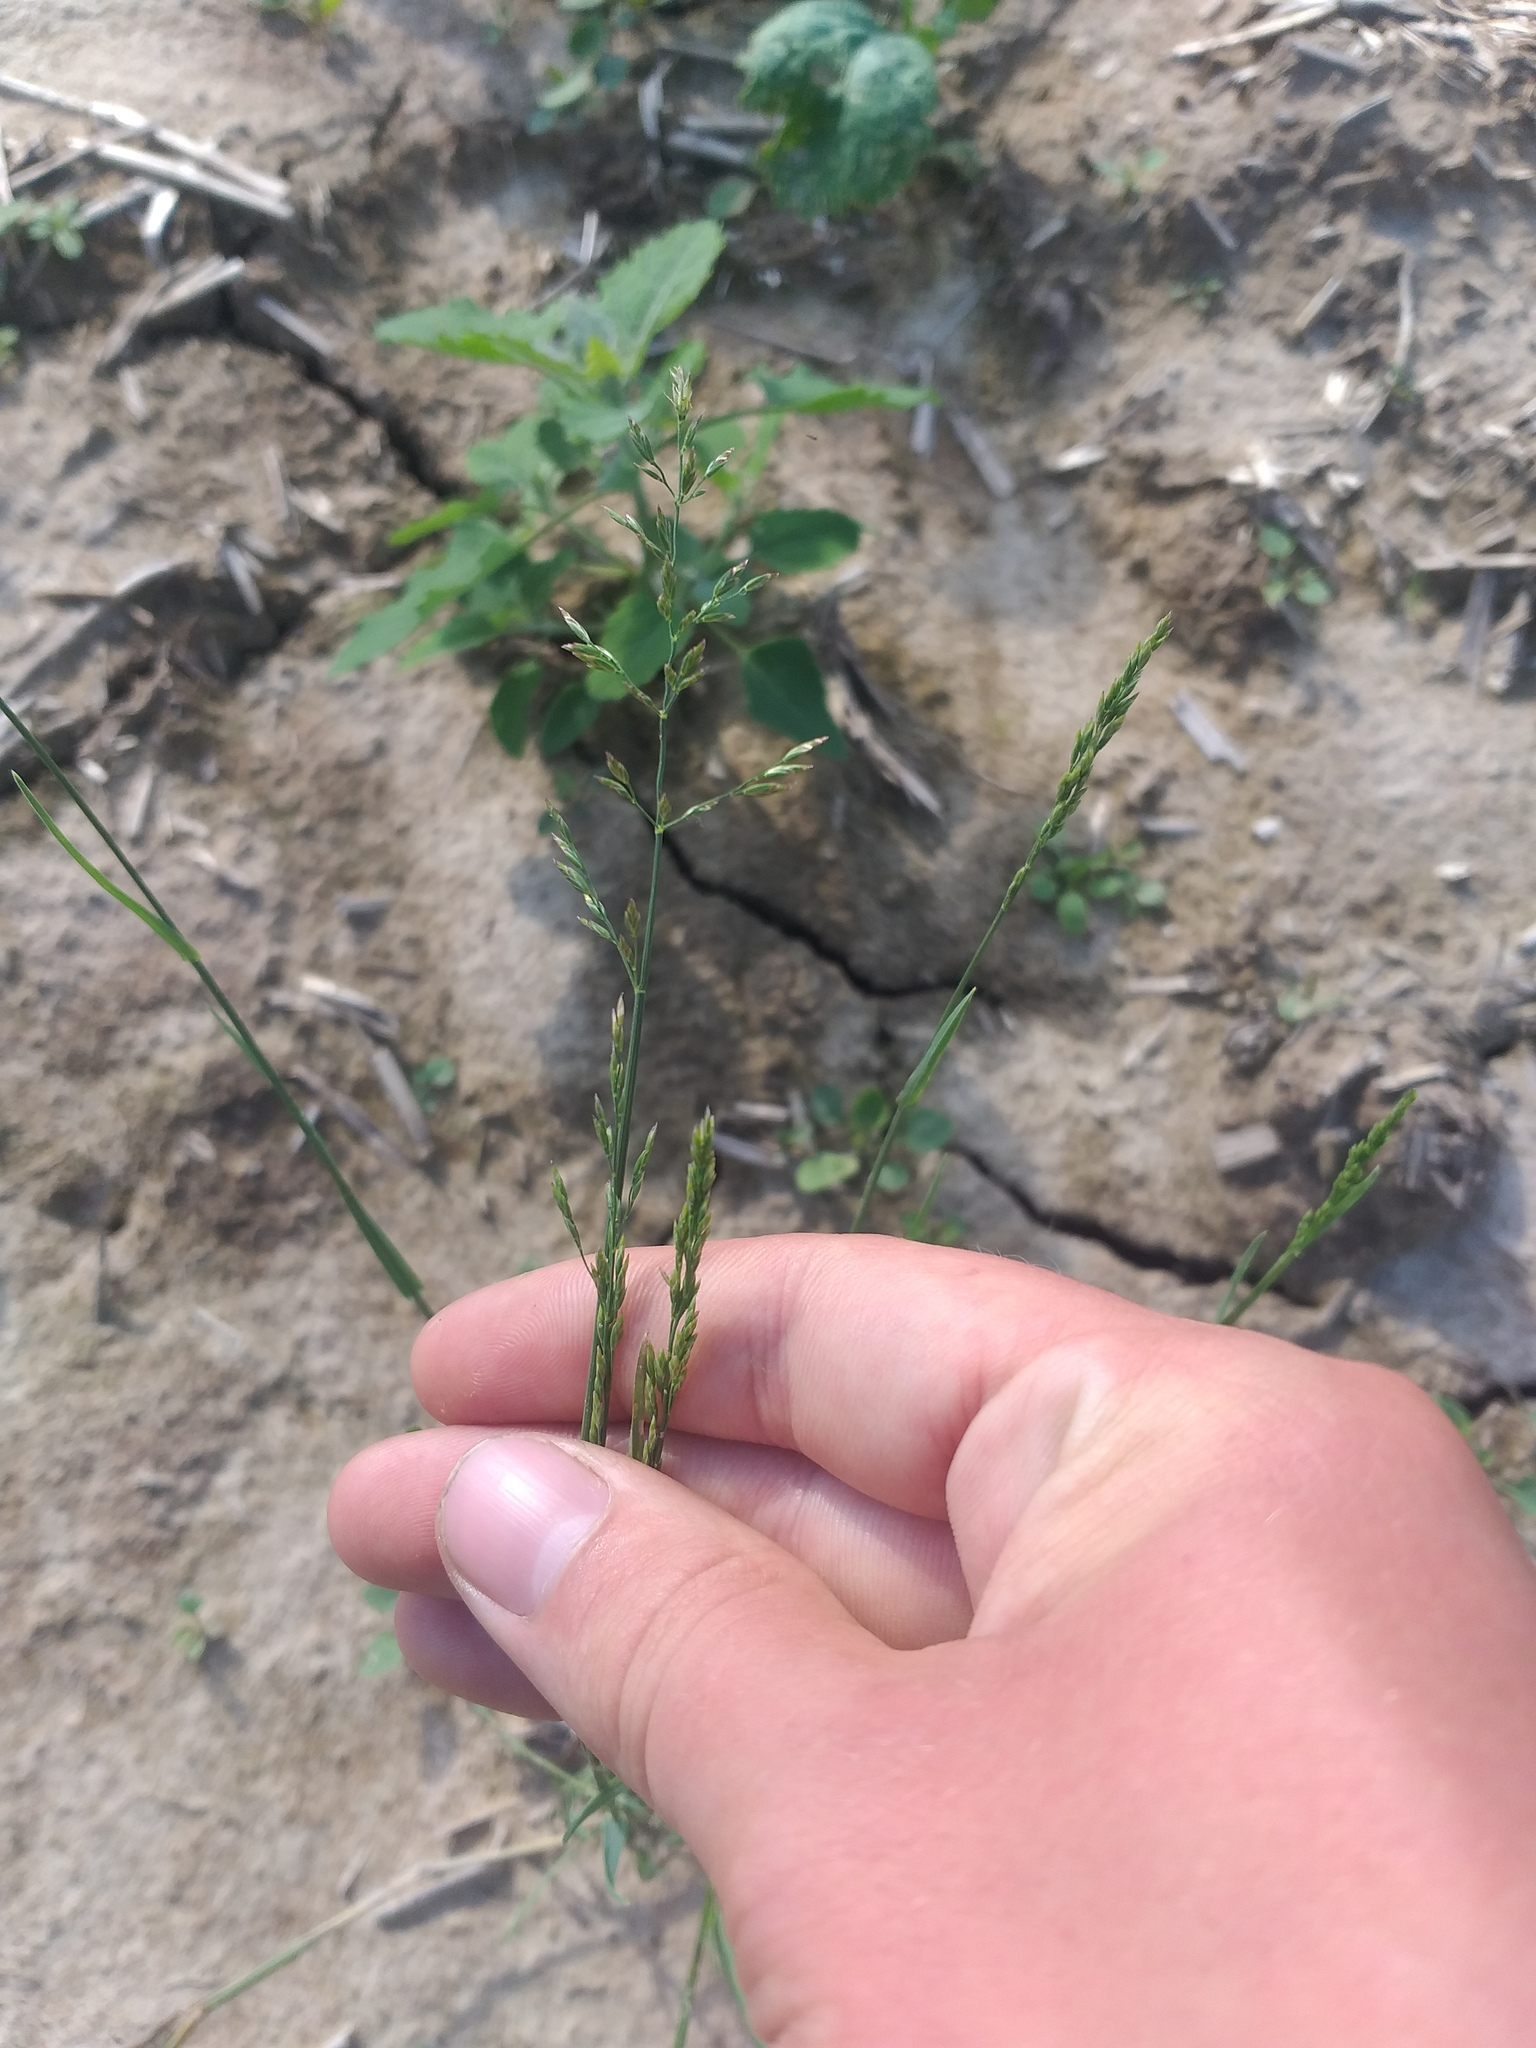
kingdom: Plantae
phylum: Tracheophyta
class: Liliopsida
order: Poales
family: Poaceae
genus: Poa
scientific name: Poa compressa
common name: Canada bluegrass
